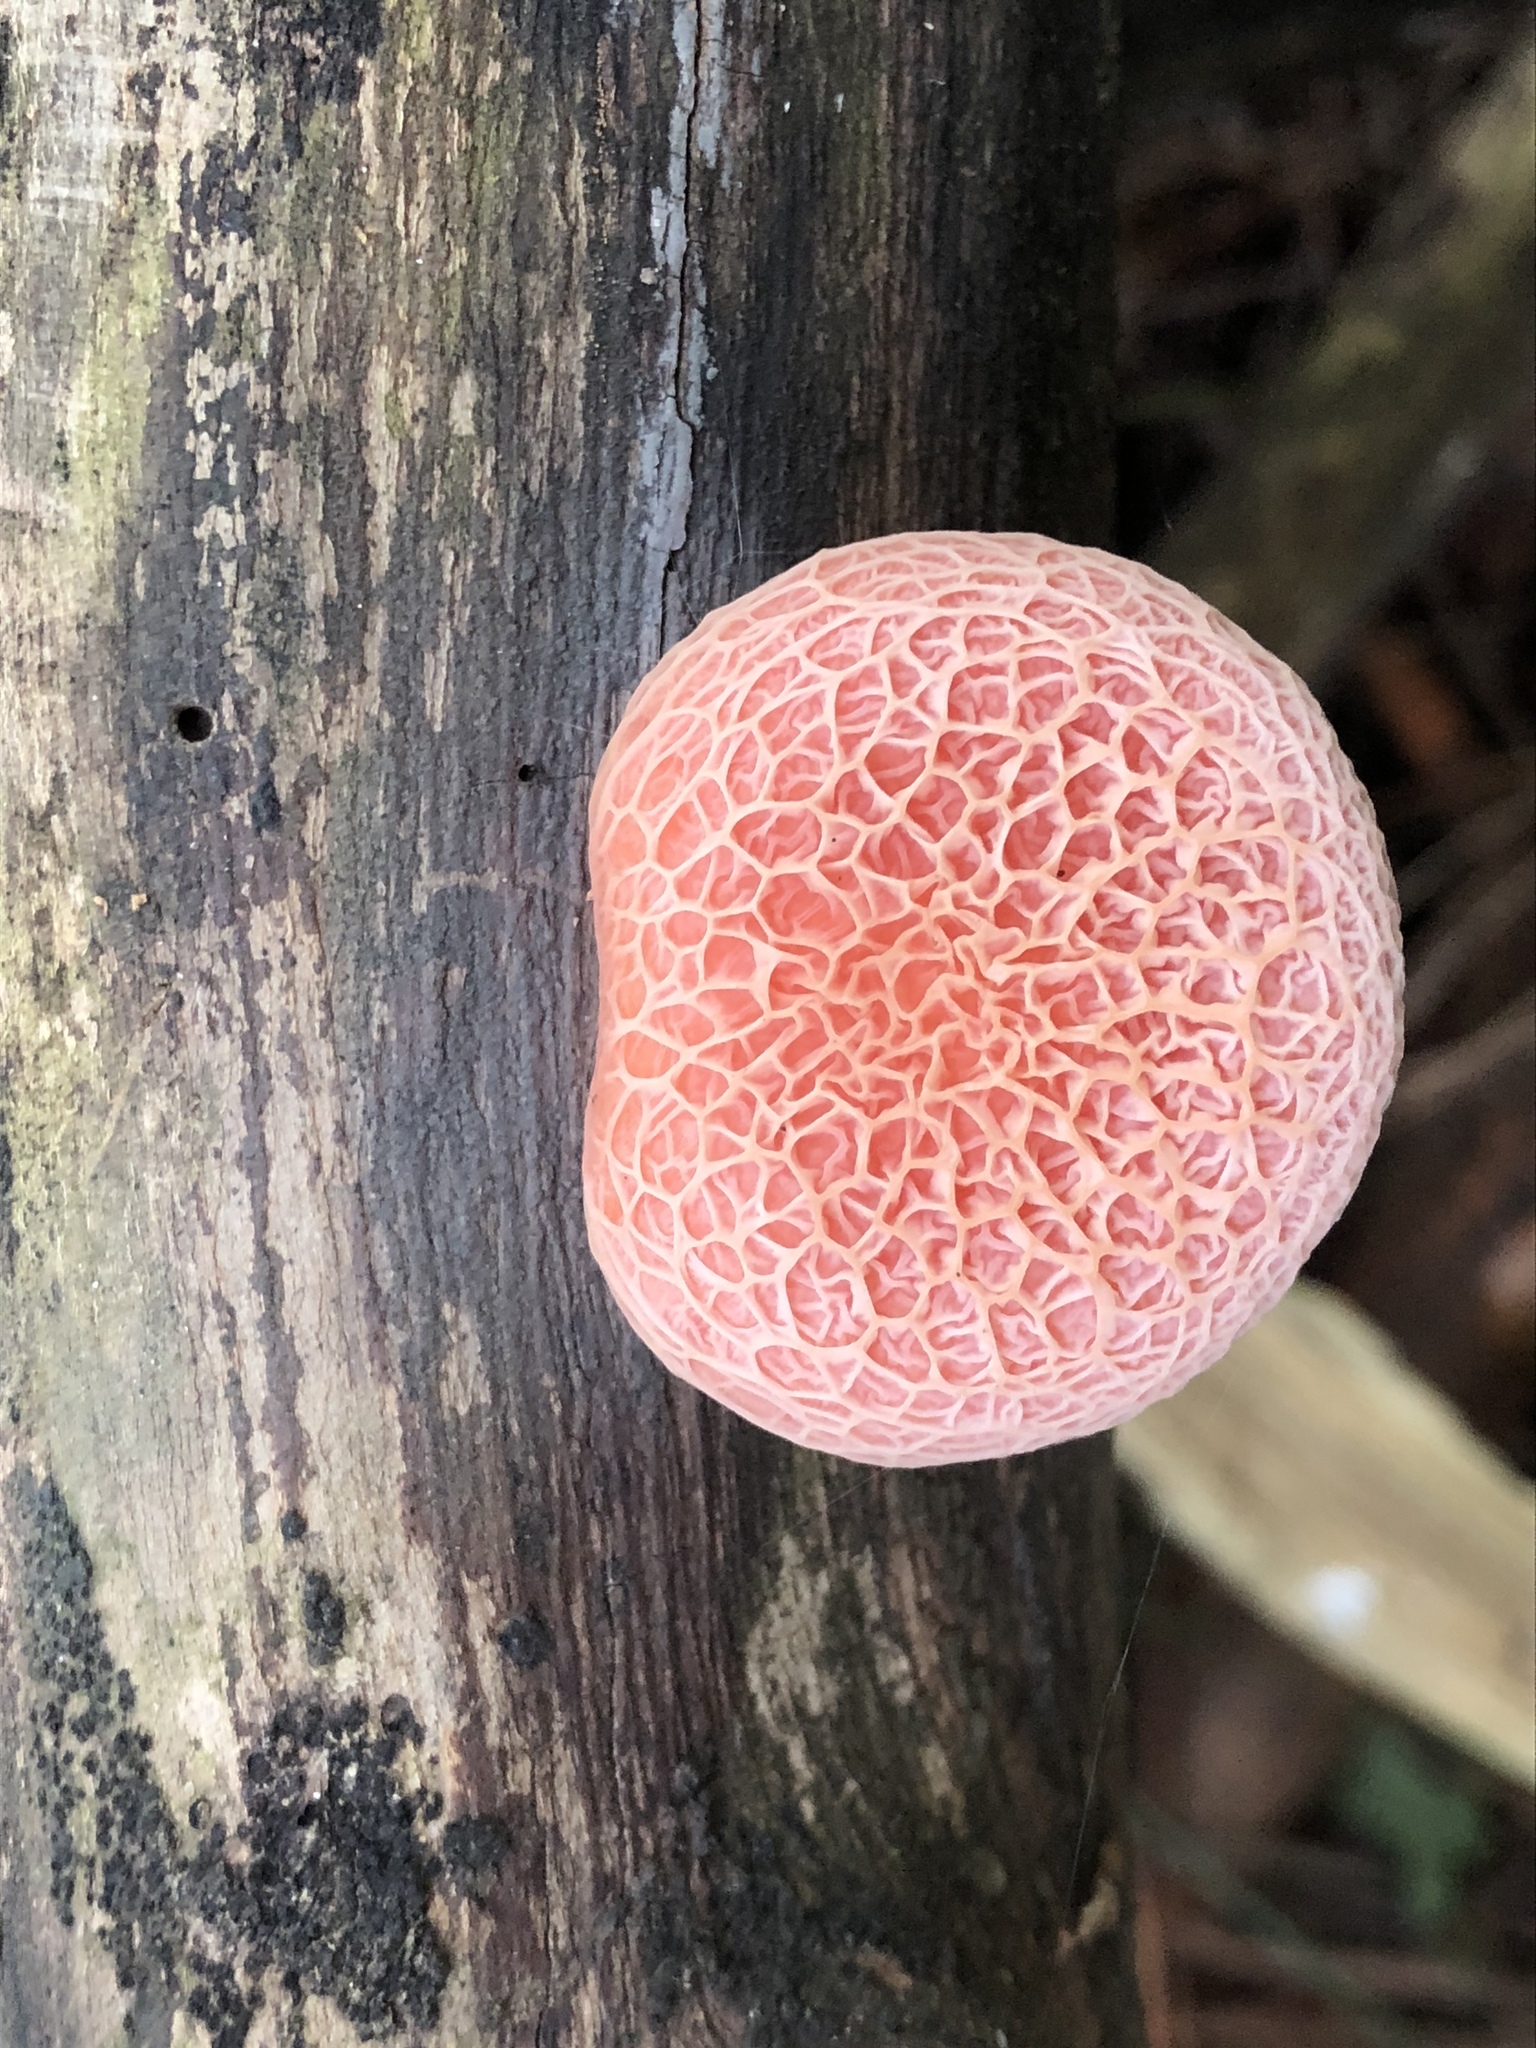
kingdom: Fungi
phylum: Basidiomycota
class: Agaricomycetes
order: Agaricales
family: Physalacriaceae
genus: Rhodotus
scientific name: Rhodotus palmatus
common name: Wrinkled peach
